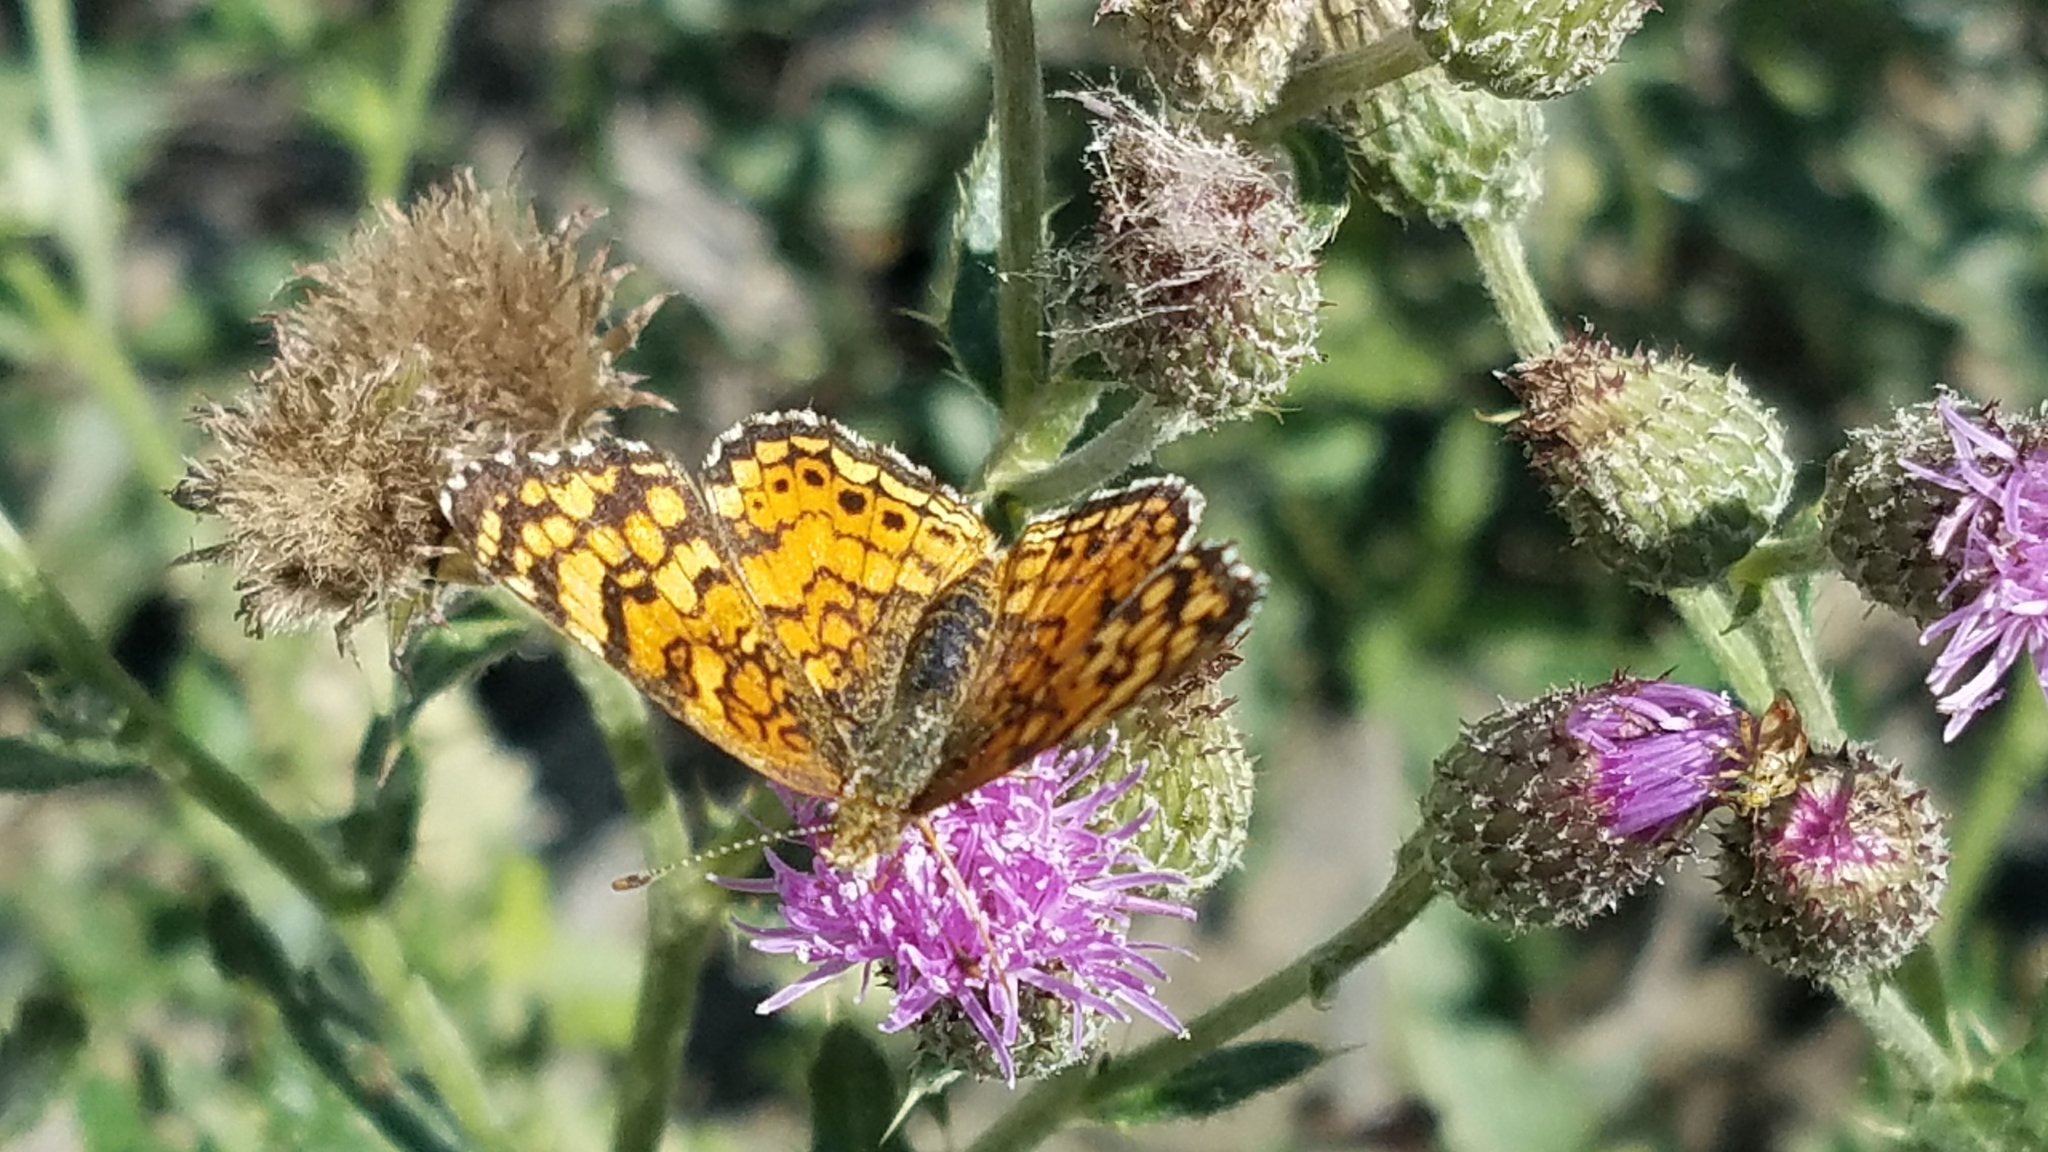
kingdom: Animalia
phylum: Arthropoda
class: Insecta
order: Lepidoptera
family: Nymphalidae
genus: Eresia
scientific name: Eresia aveyrona
